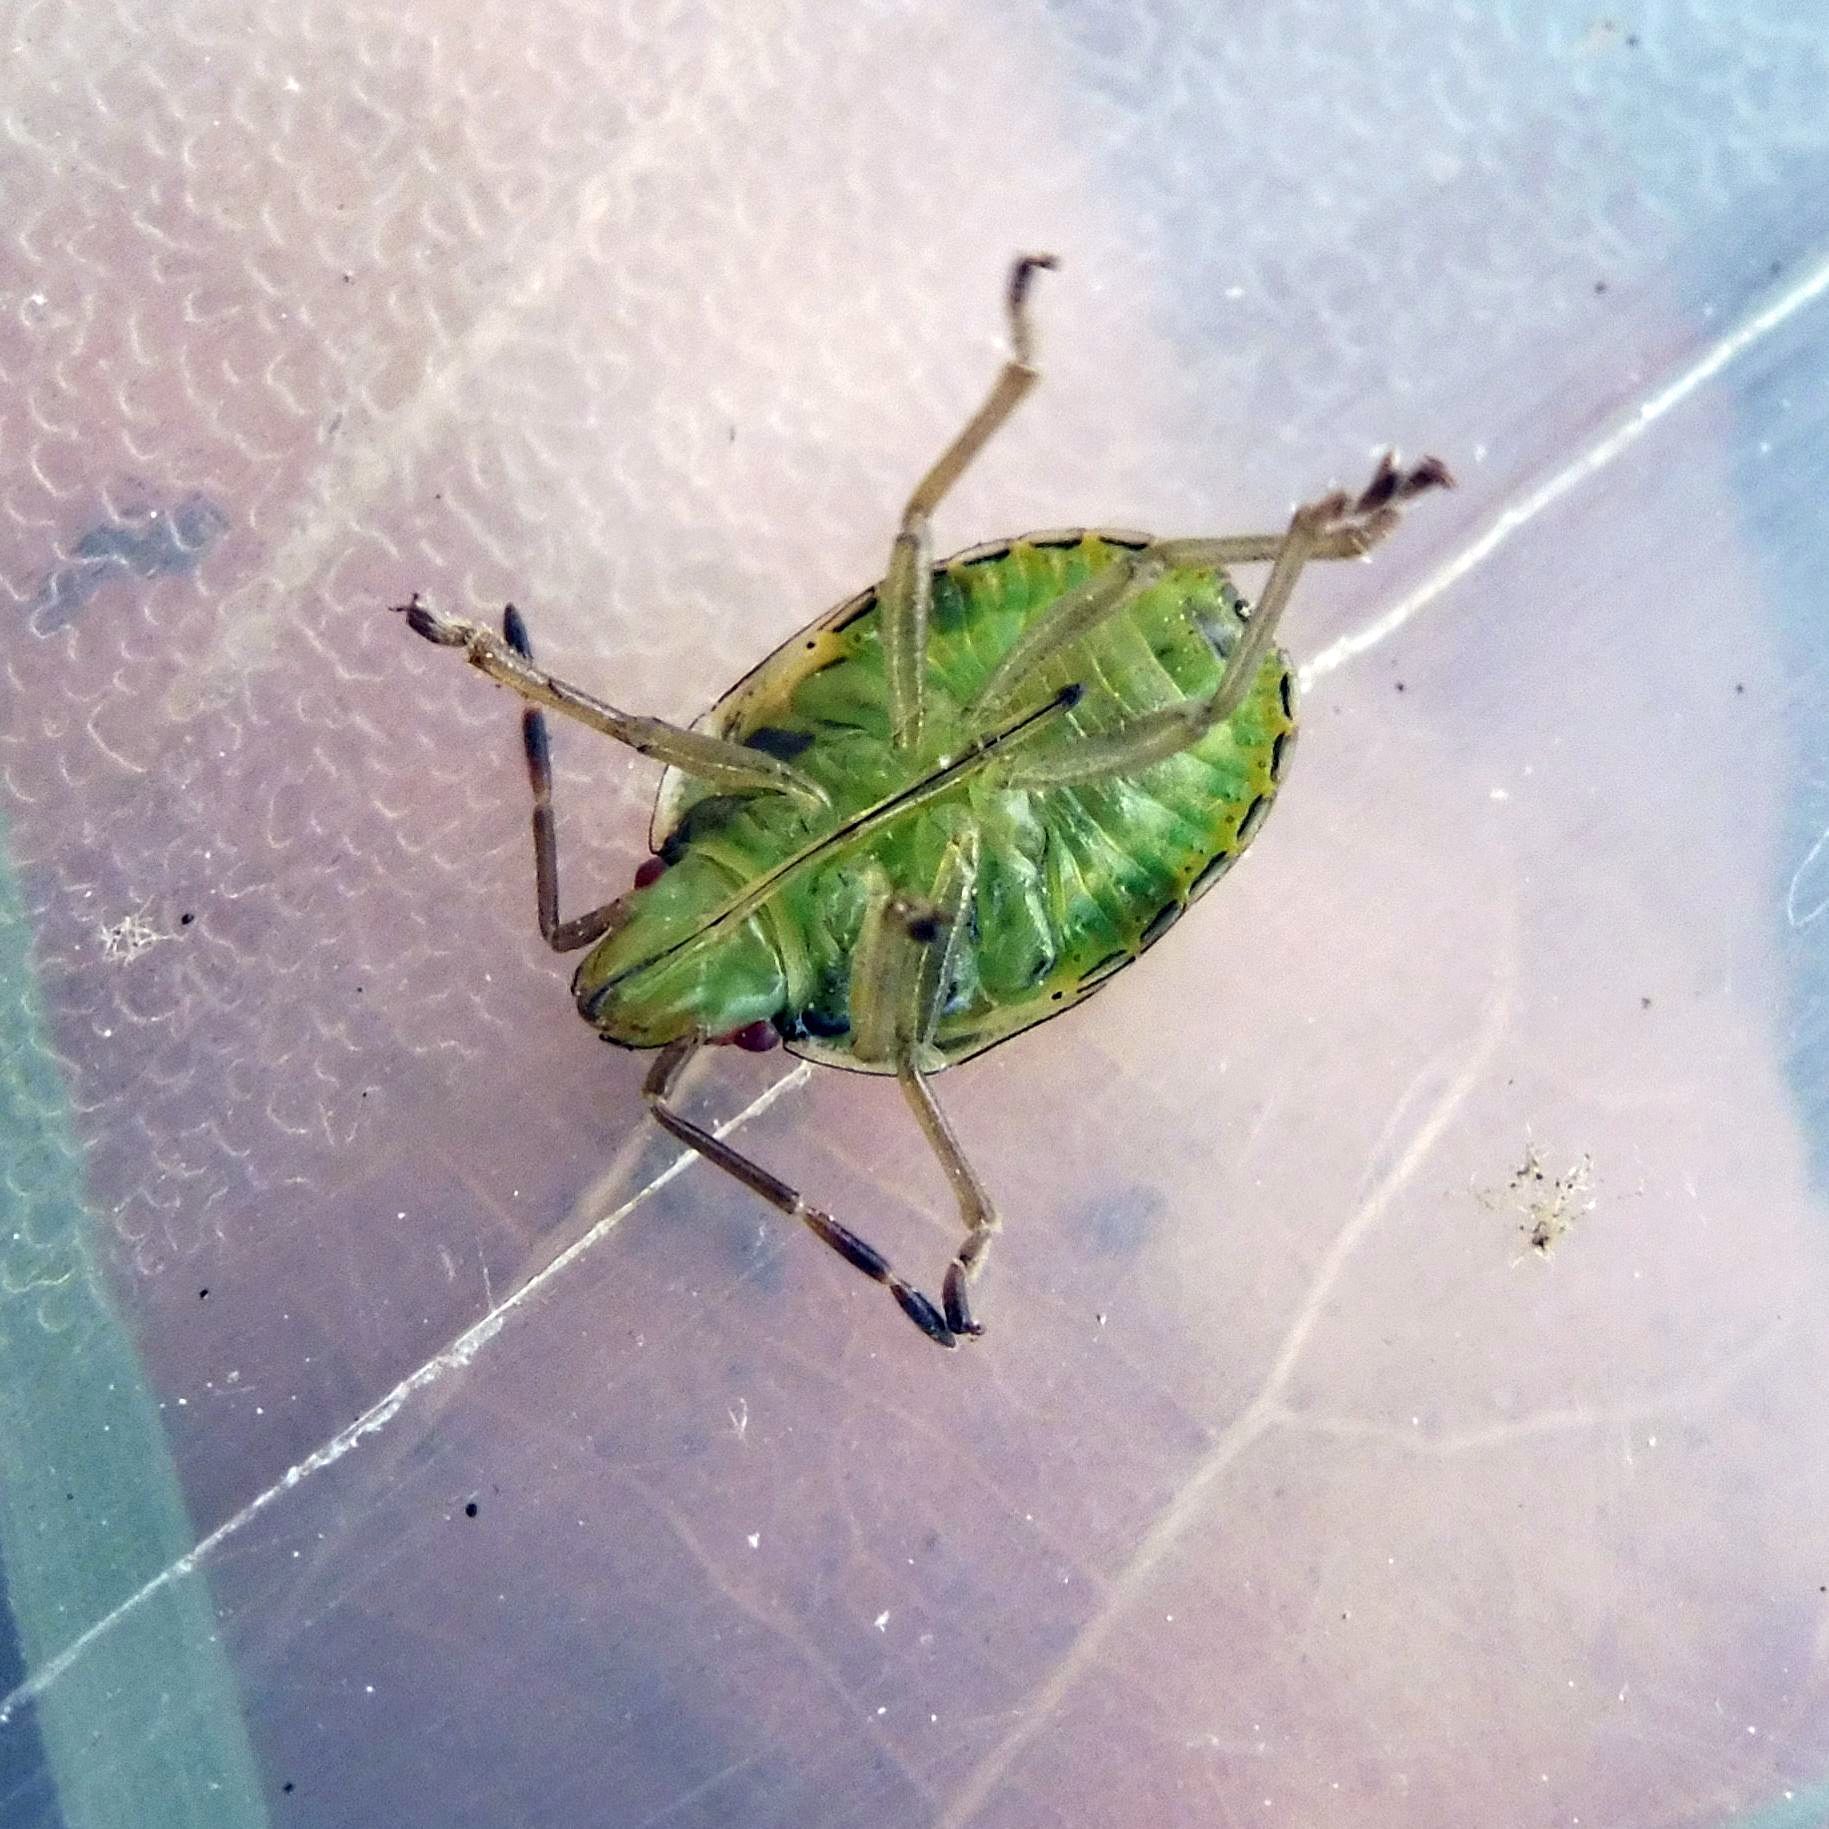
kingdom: Animalia
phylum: Arthropoda
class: Insecta
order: Hemiptera
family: Acanthosomatidae
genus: Cyphostethus
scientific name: Cyphostethus tristriatus
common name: Juniper shieldbug
